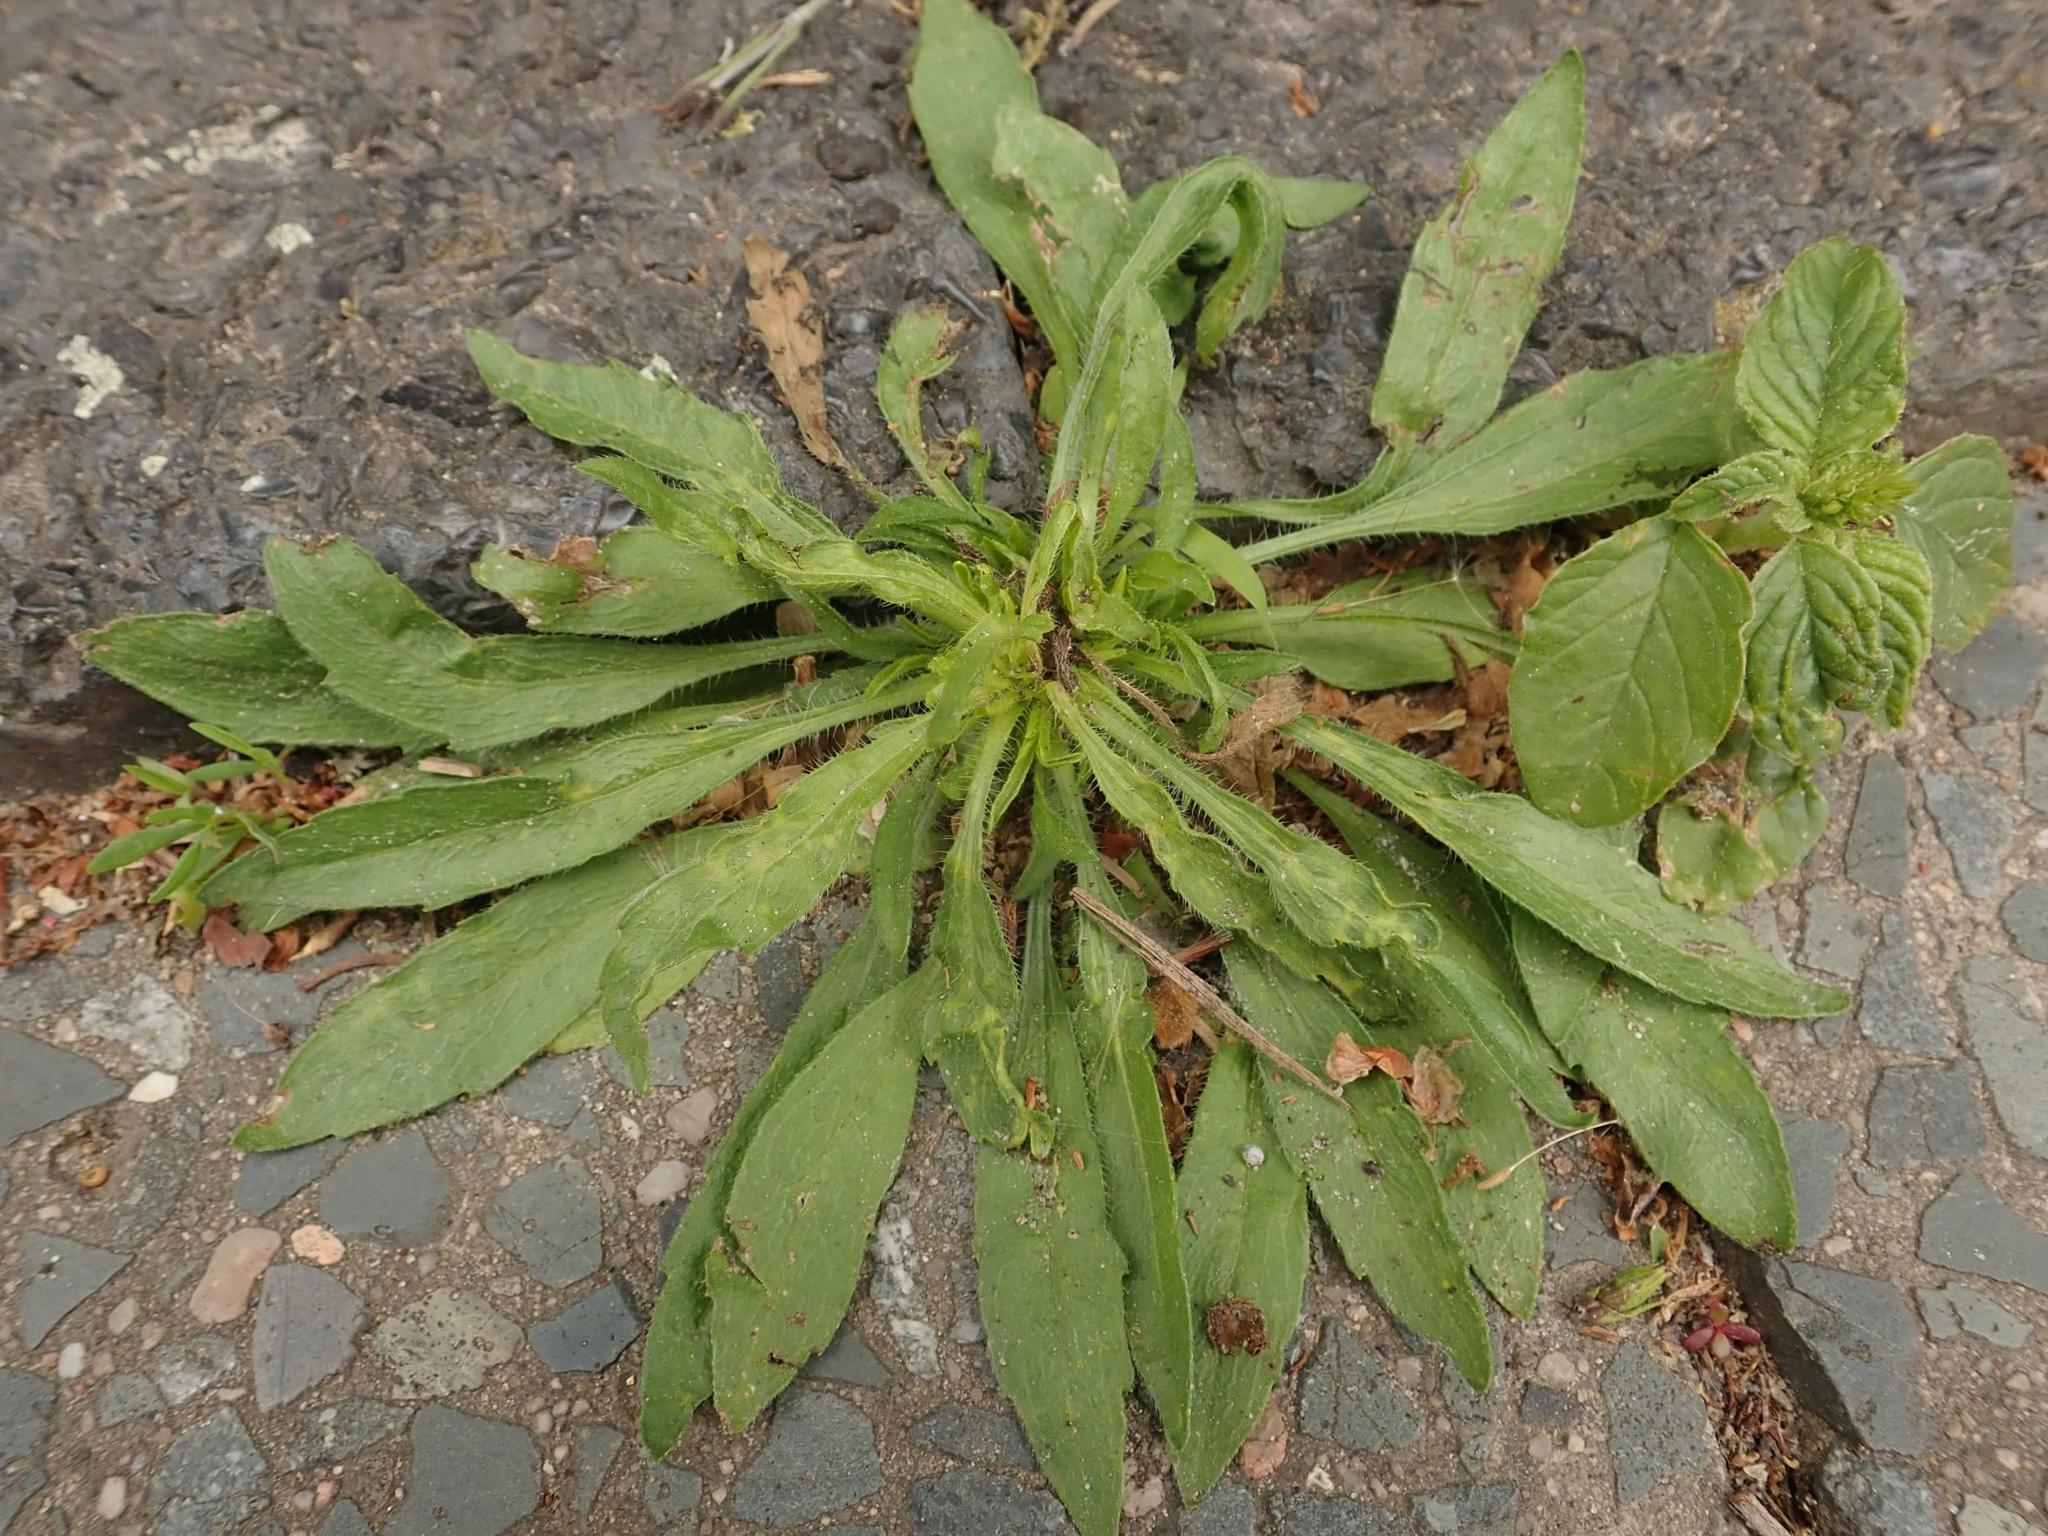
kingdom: Plantae
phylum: Tracheophyta
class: Magnoliopsida
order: Asterales
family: Asteraceae
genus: Erigeron
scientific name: Erigeron canadensis
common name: Canadian fleabane
